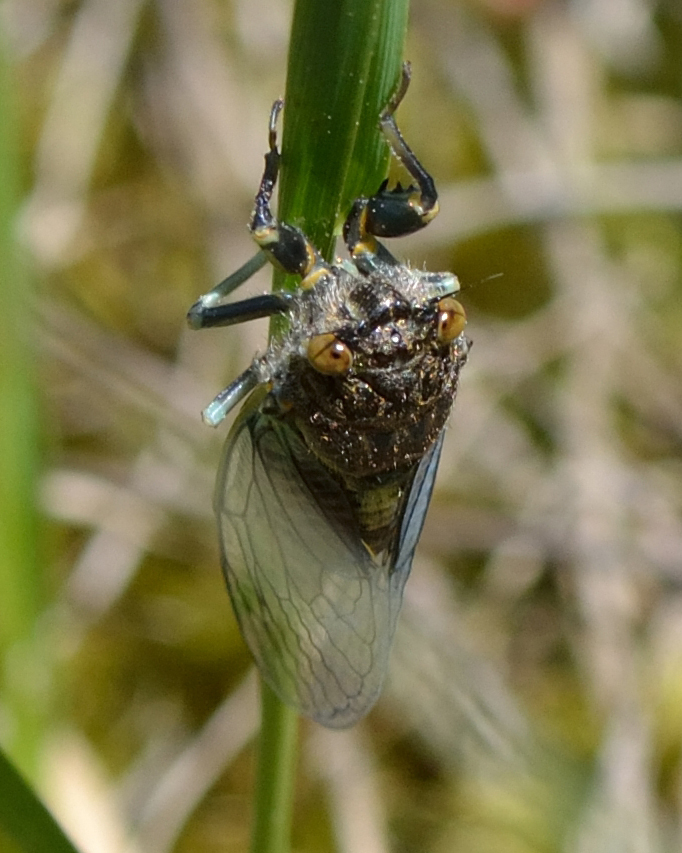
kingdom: Animalia
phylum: Arthropoda
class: Insecta
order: Hemiptera
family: Cicadidae
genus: Cicadetta
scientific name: Cicadetta montana
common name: New forest cicada
